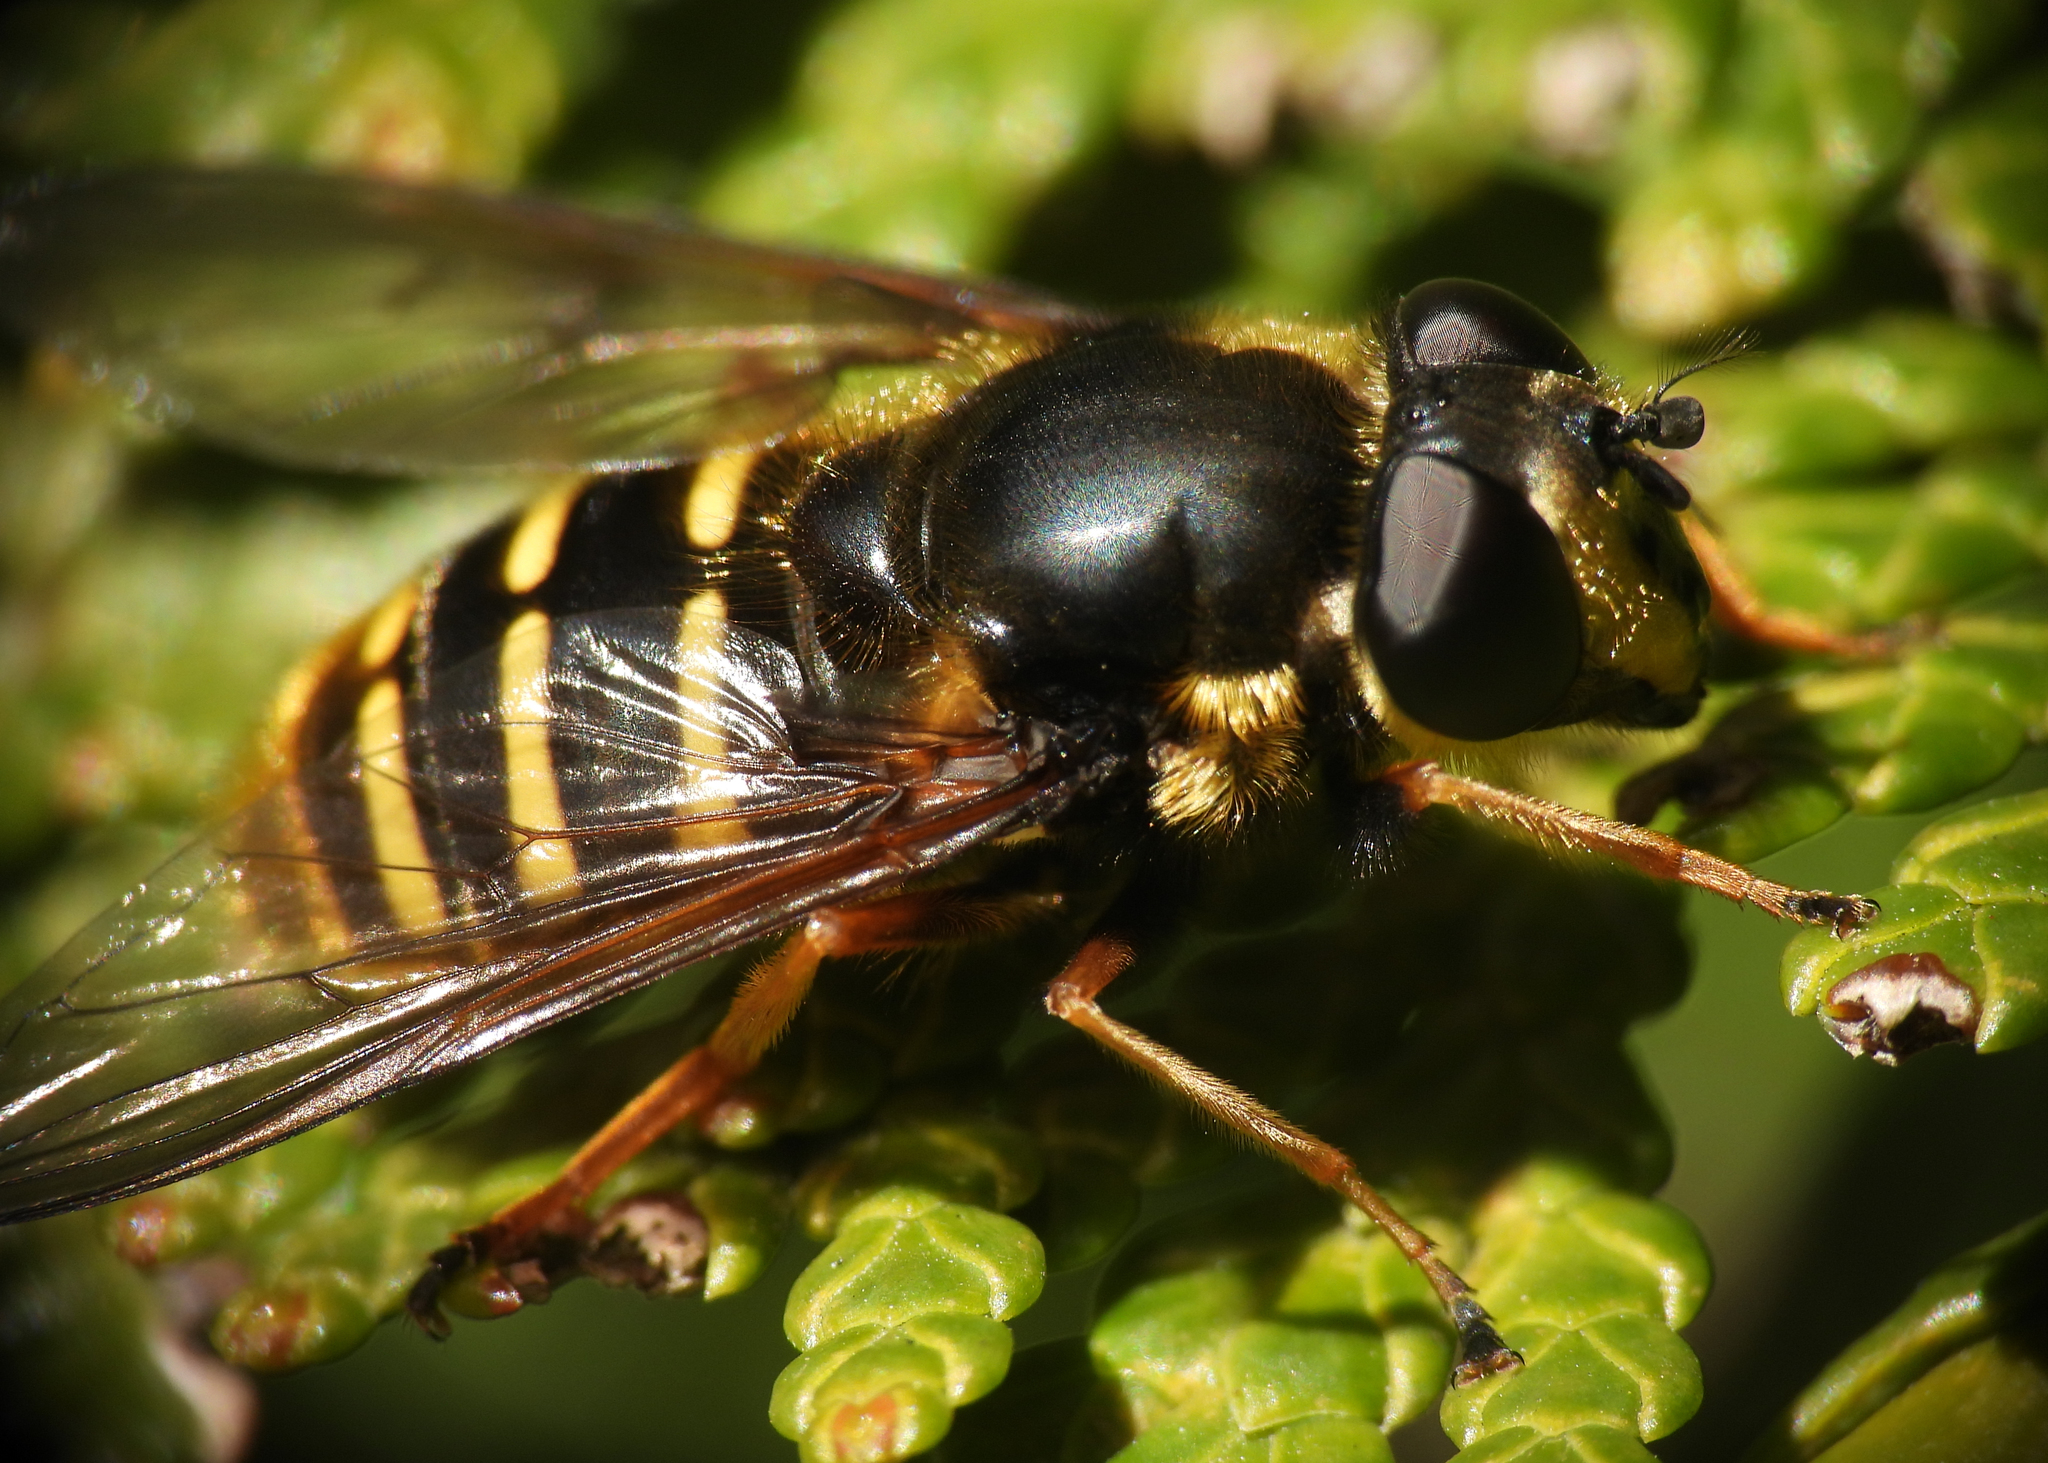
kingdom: Animalia
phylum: Arthropoda
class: Insecta
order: Diptera
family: Syrphidae
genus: Sericomyia
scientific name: Sericomyia chalcopyga
